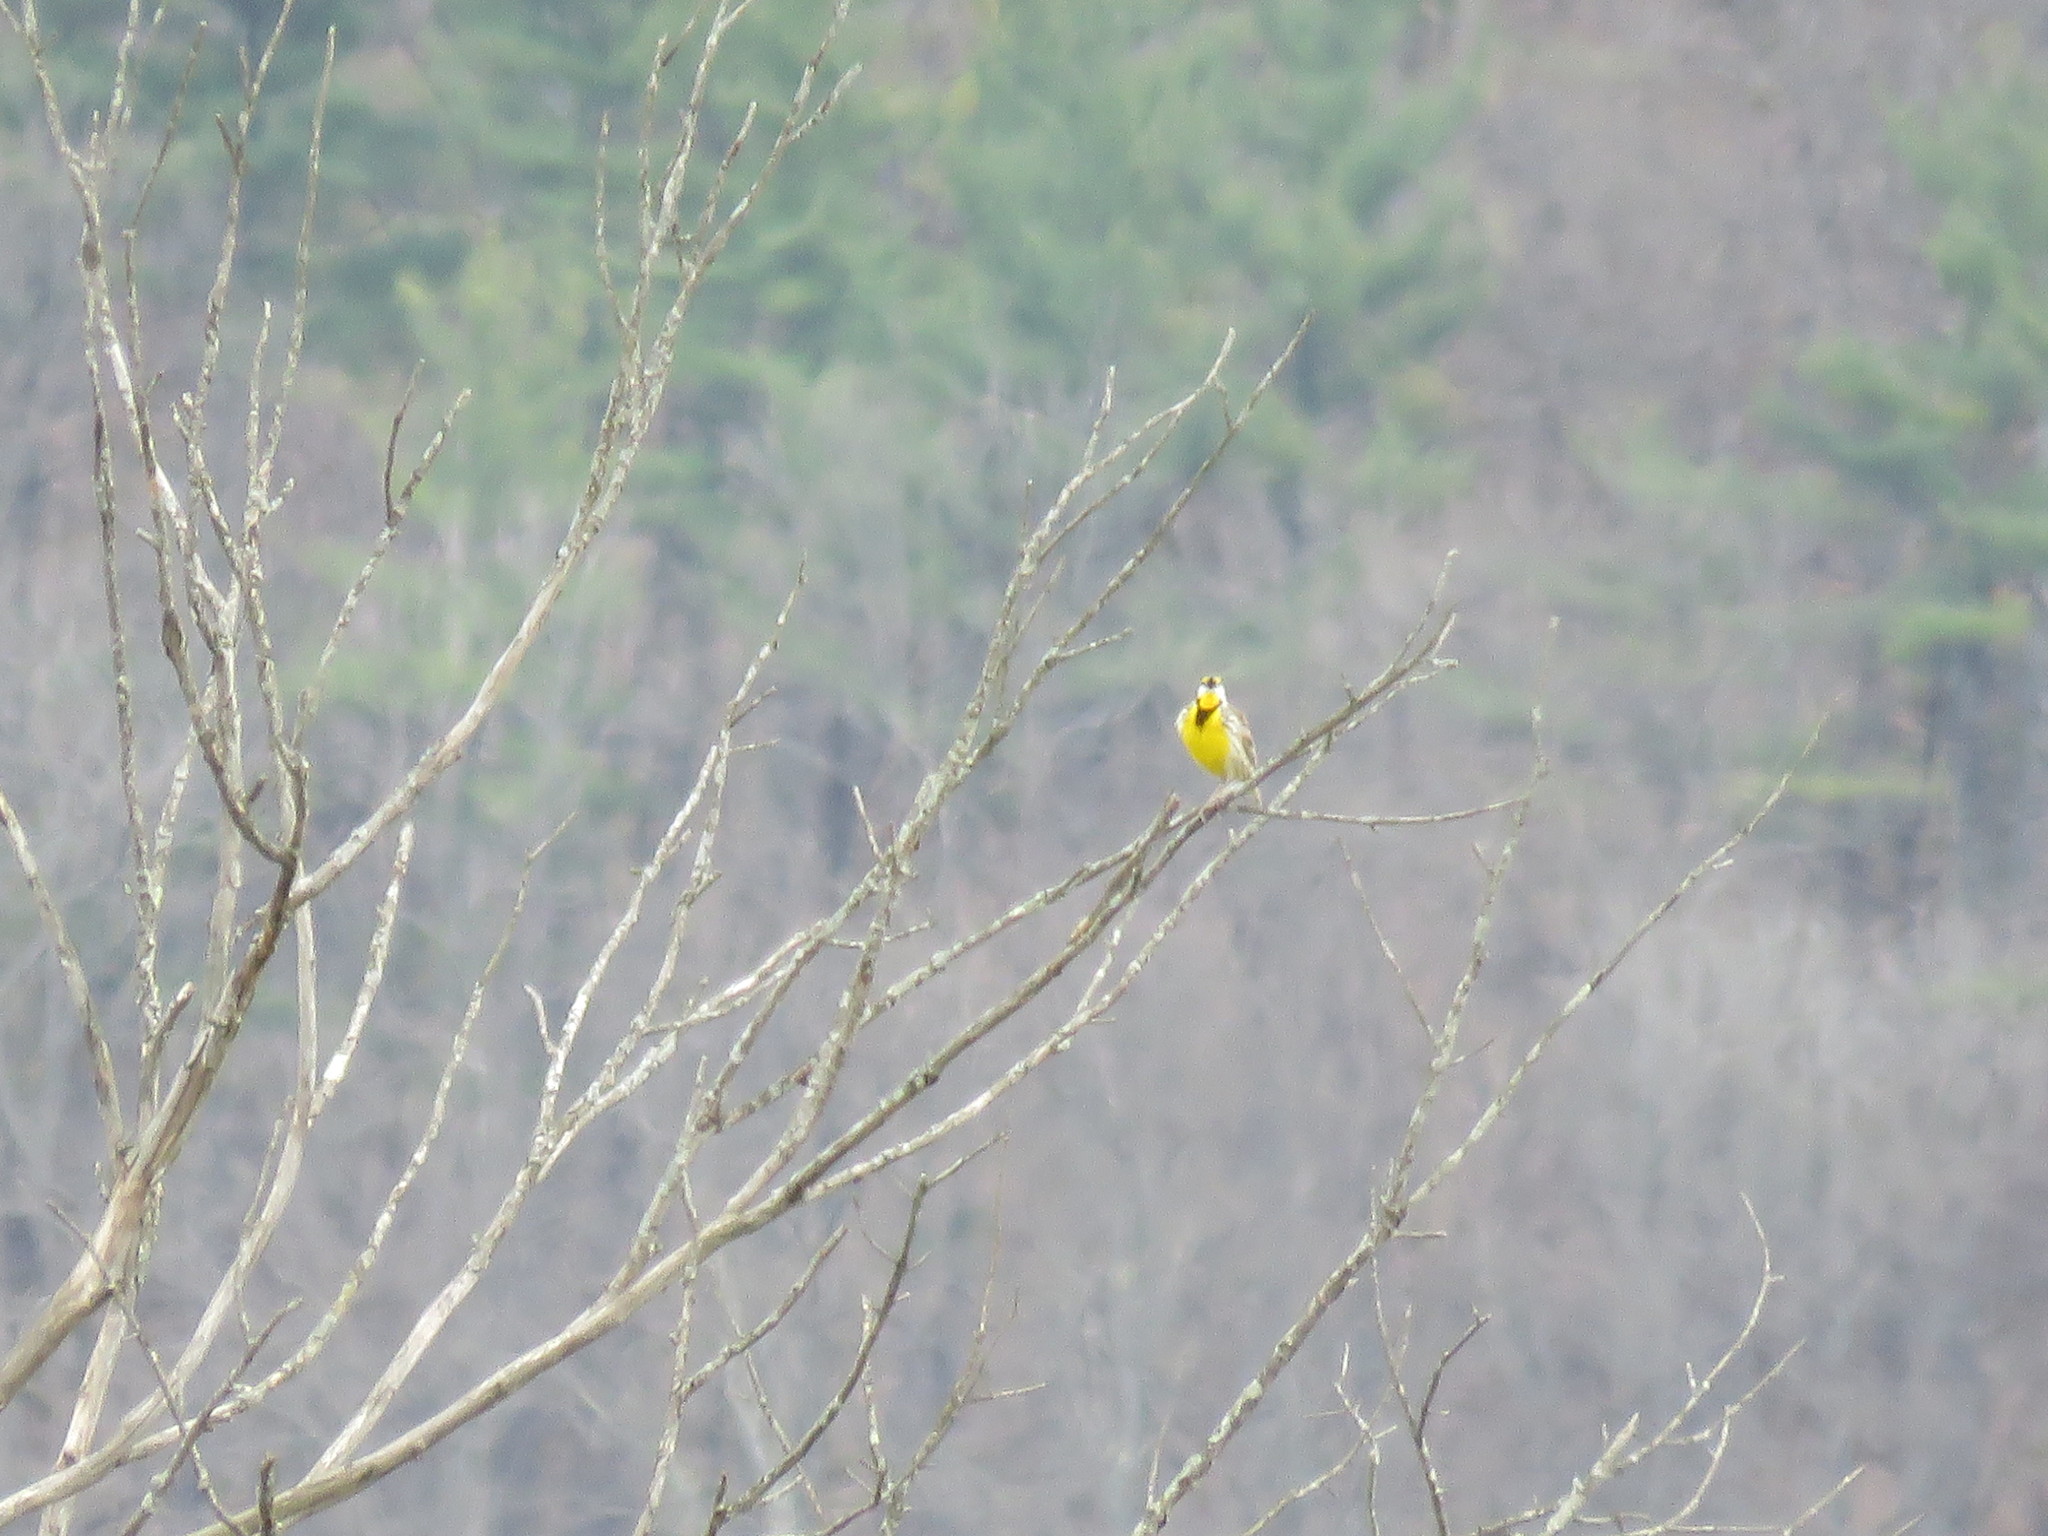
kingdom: Animalia
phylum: Chordata
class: Aves
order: Passeriformes
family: Icteridae
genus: Sturnella
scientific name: Sturnella magna
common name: Eastern meadowlark
